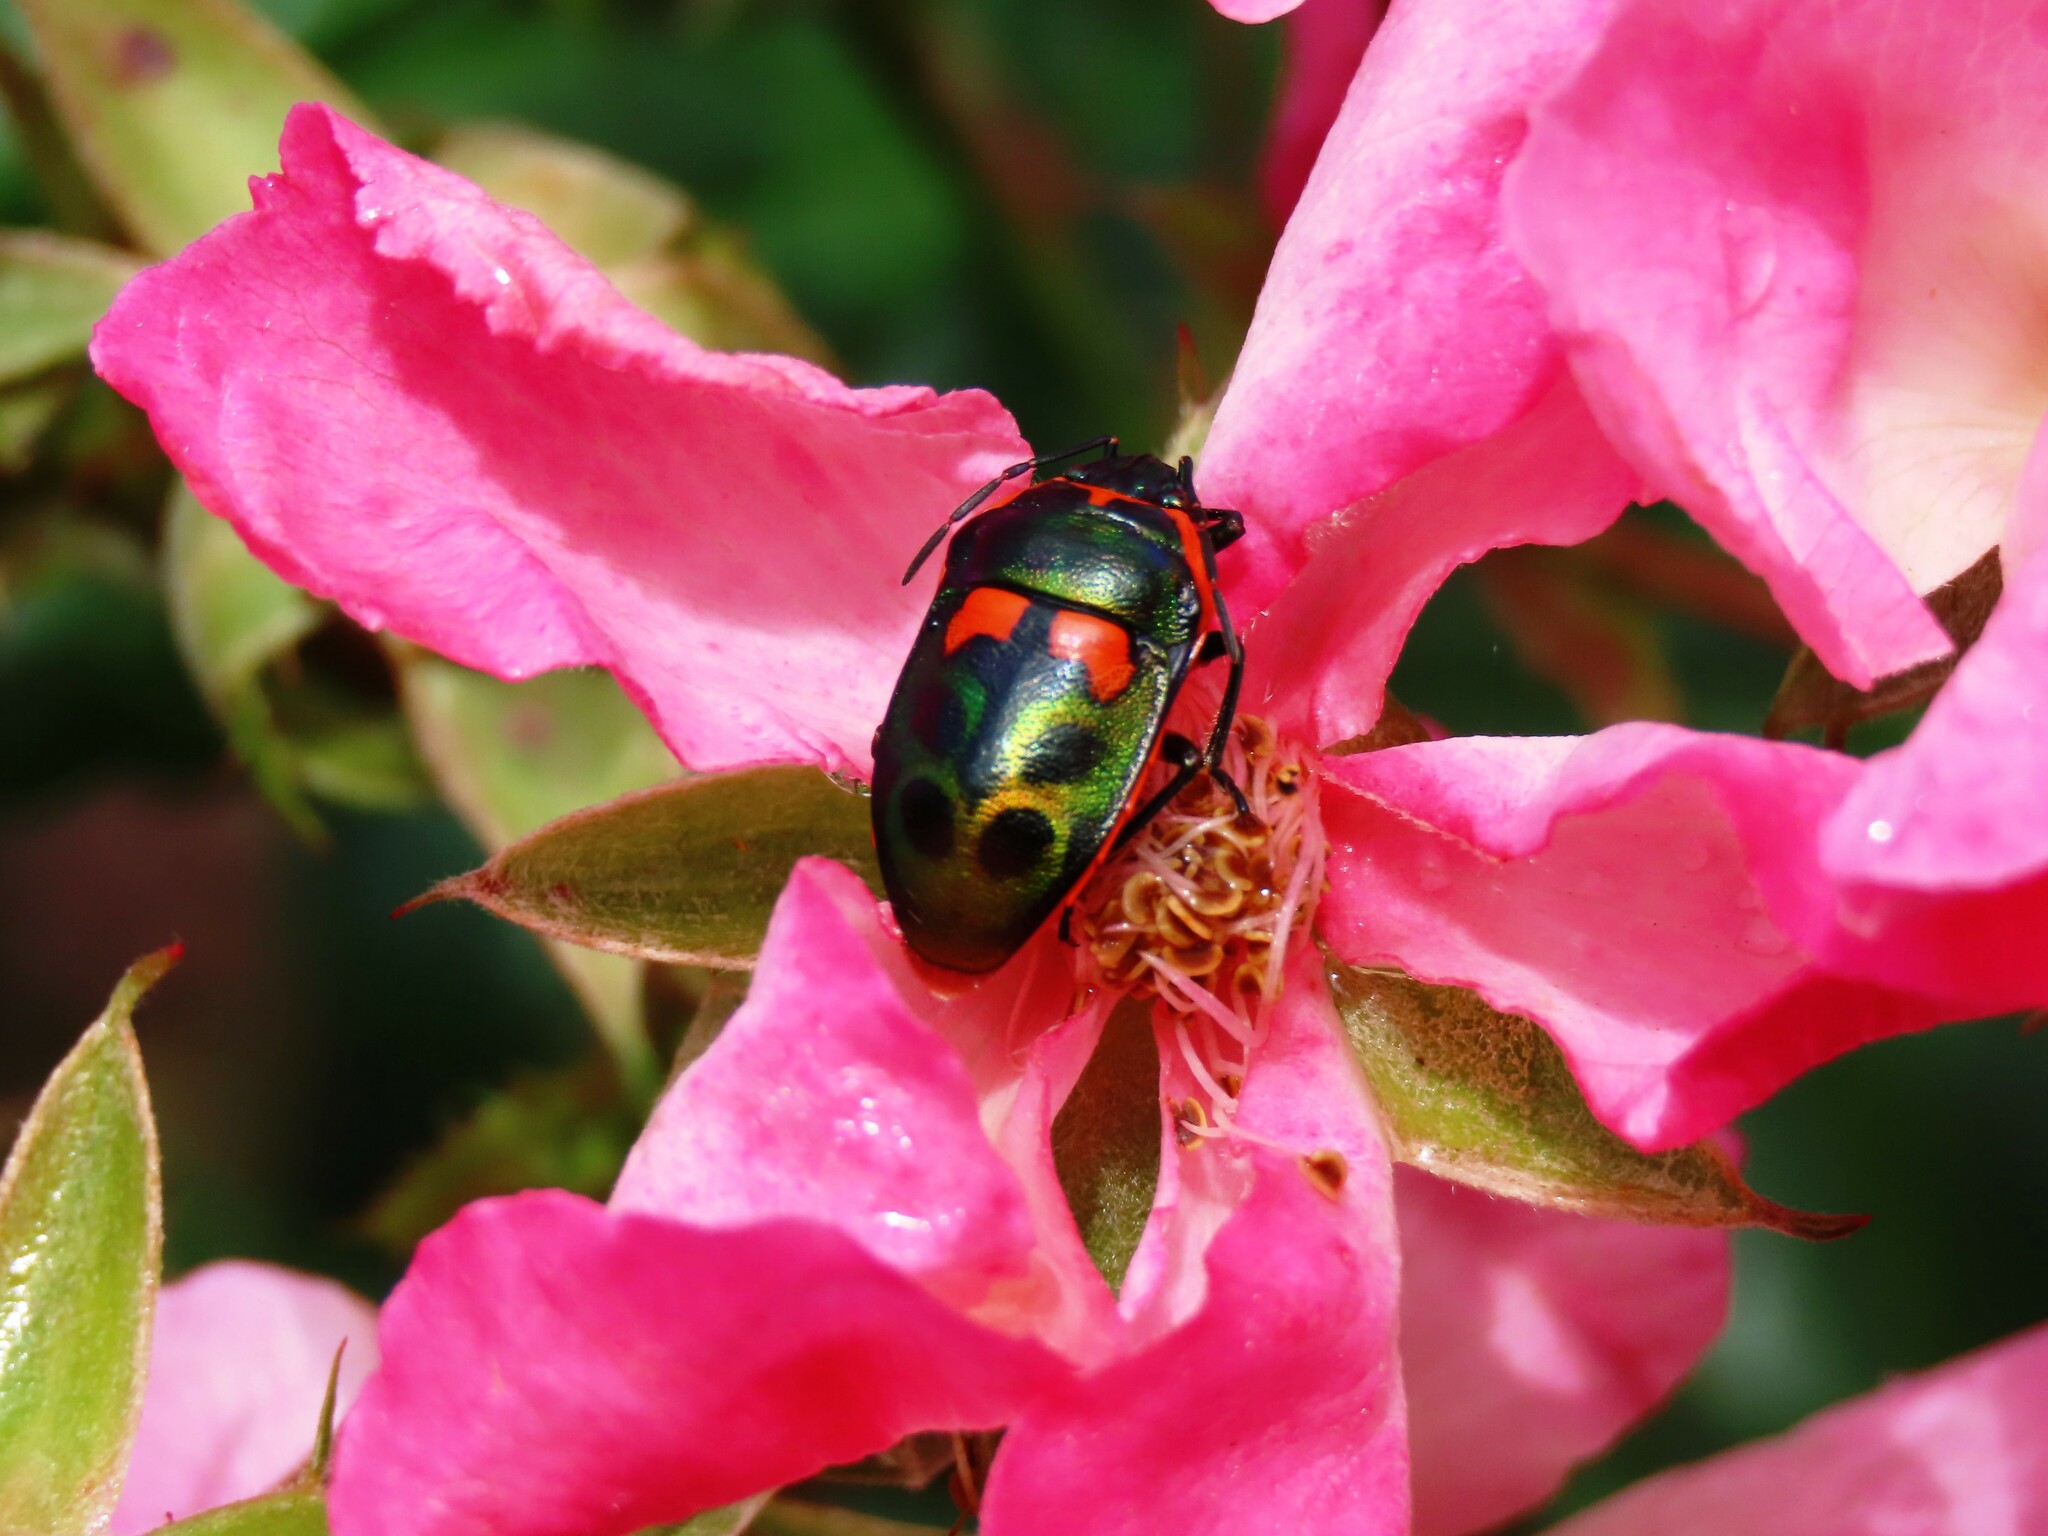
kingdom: Animalia
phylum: Arthropoda
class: Insecta
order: Hemiptera
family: Scutelleridae
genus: Scutiphora
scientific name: Scutiphora pedicellata
